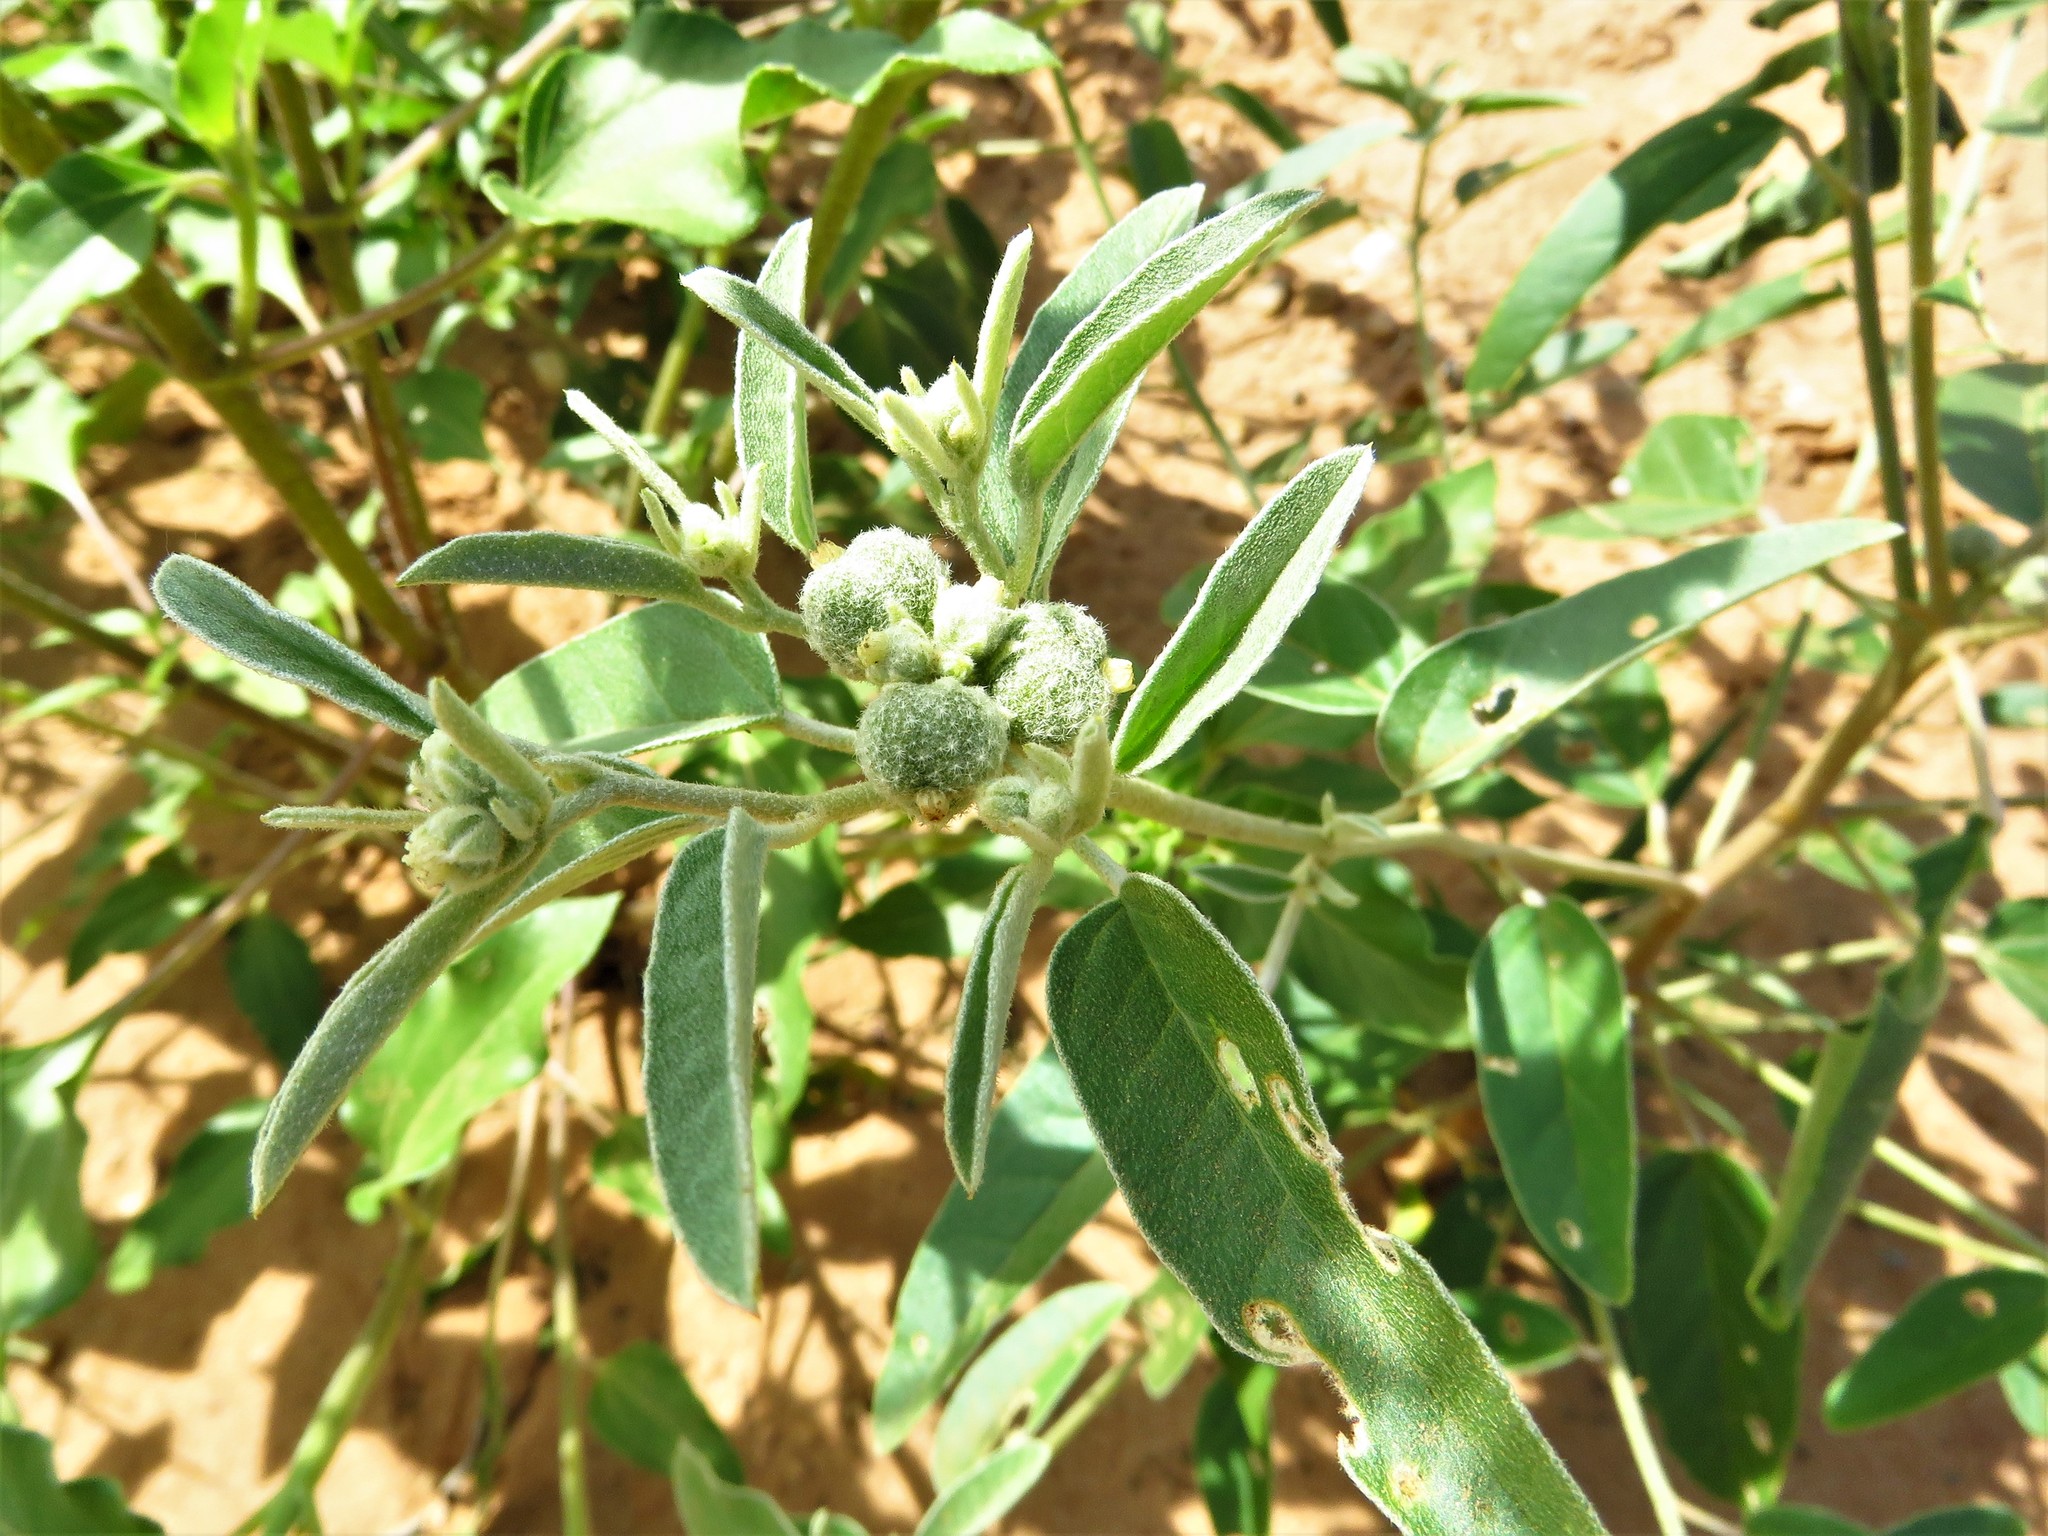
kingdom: Plantae
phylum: Tracheophyta
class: Magnoliopsida
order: Malpighiales
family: Euphorbiaceae
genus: Croton
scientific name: Croton texensis
